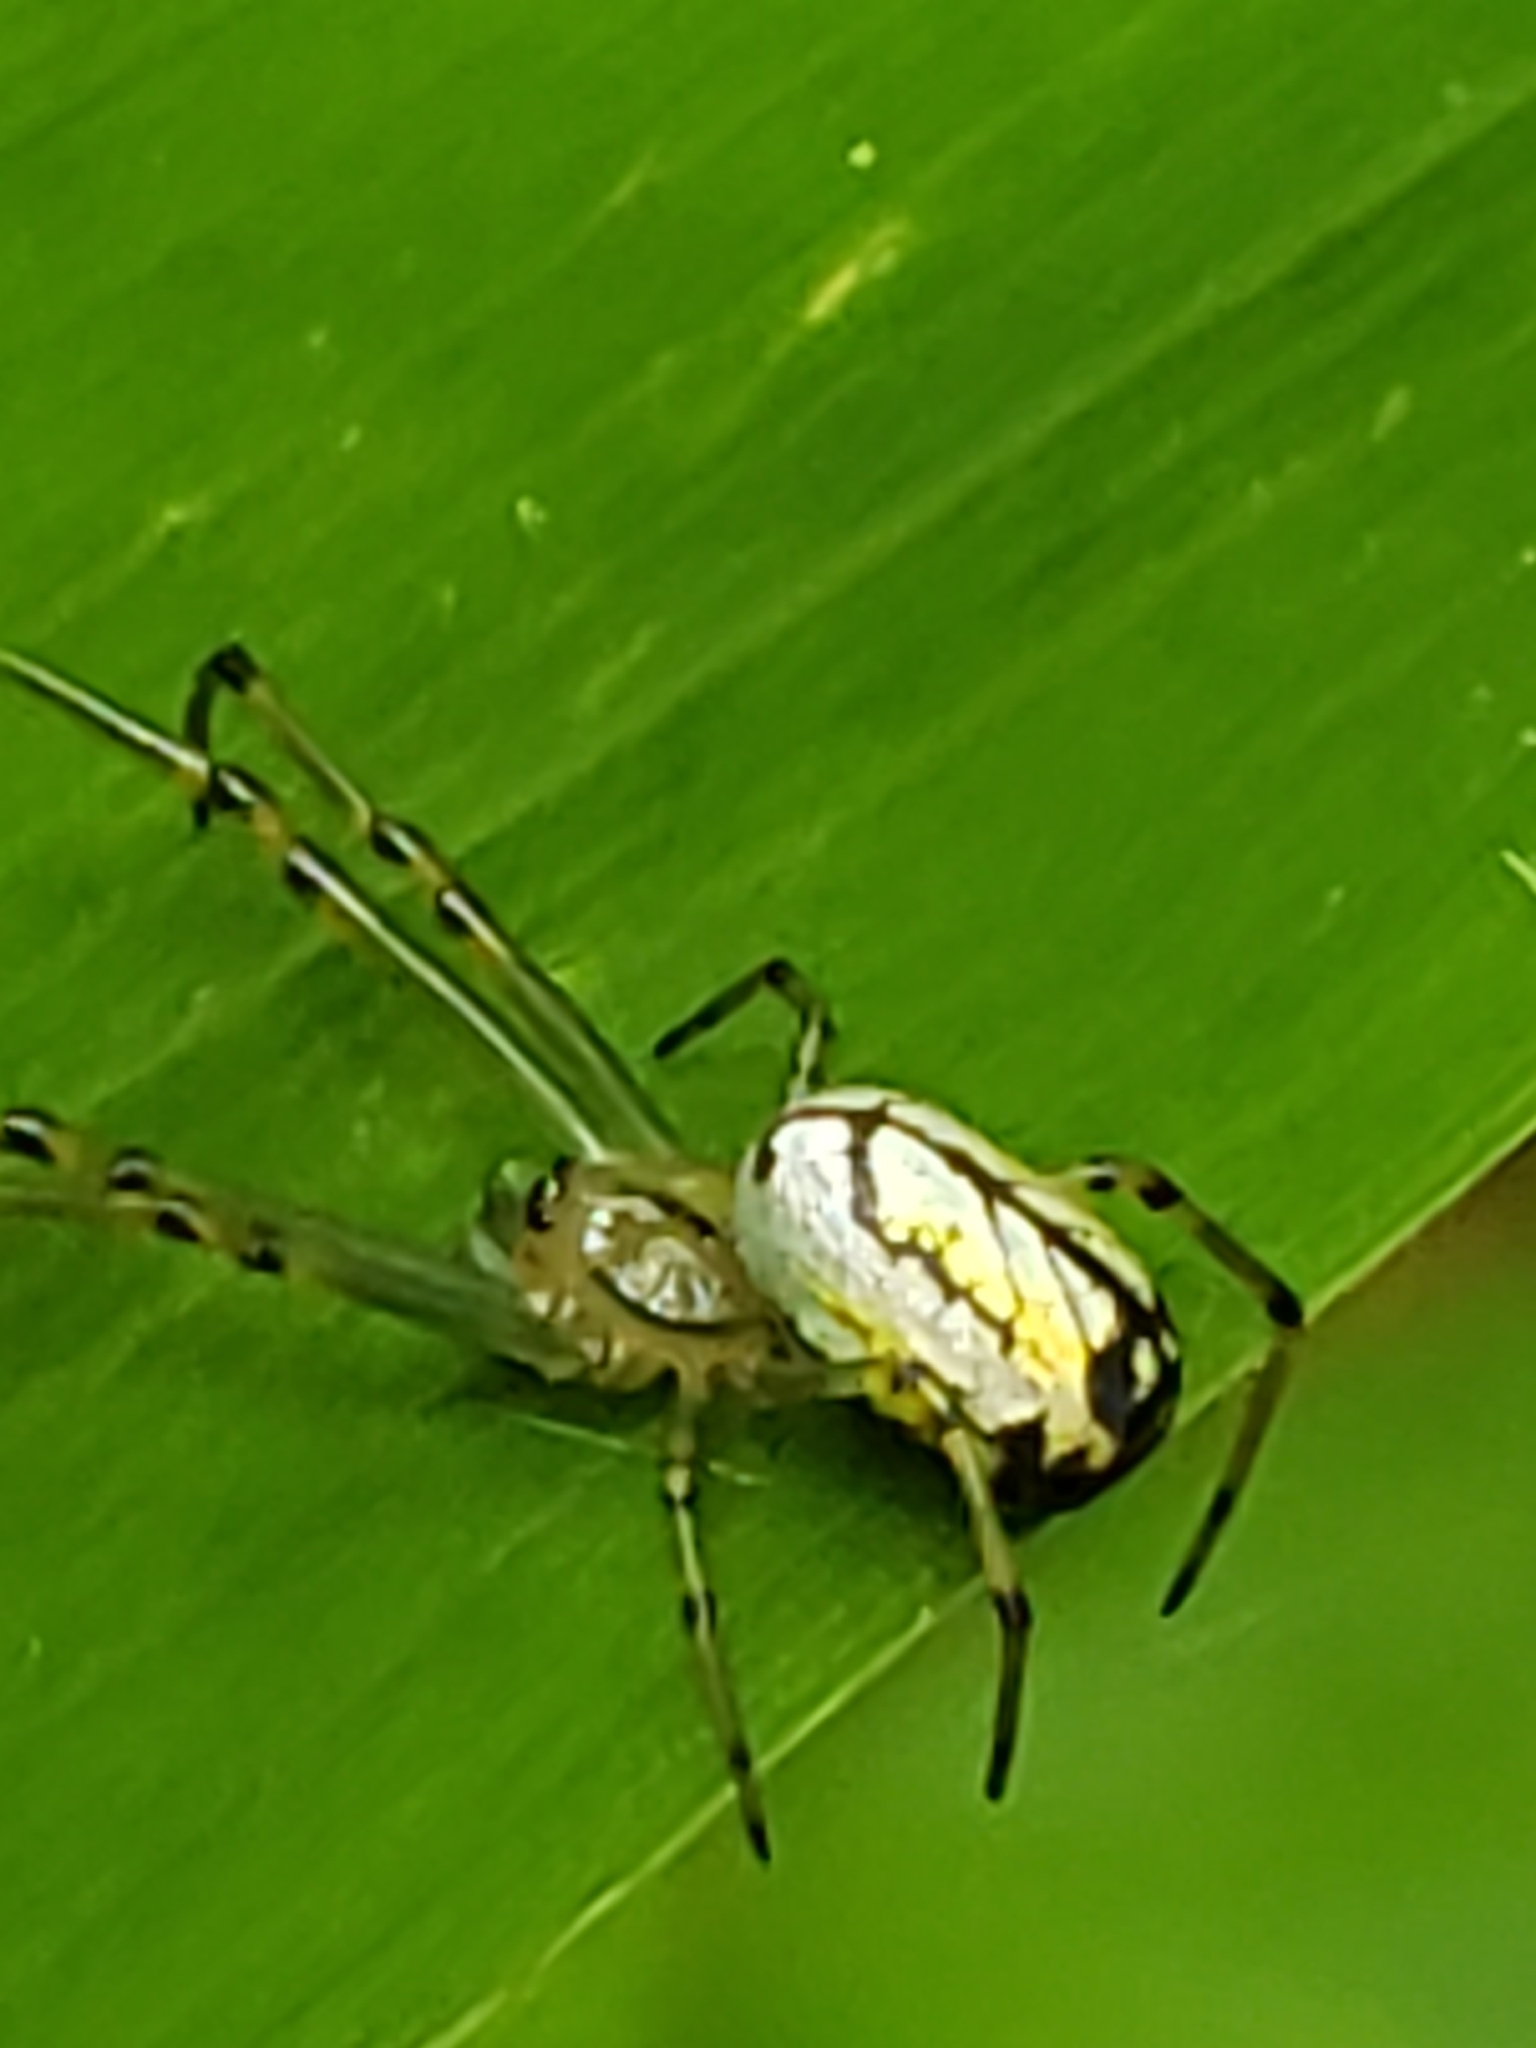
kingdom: Animalia
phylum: Arthropoda
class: Arachnida
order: Araneae
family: Tetragnathidae
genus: Leucauge
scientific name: Leucauge venusta
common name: Longjawed orb weavers
